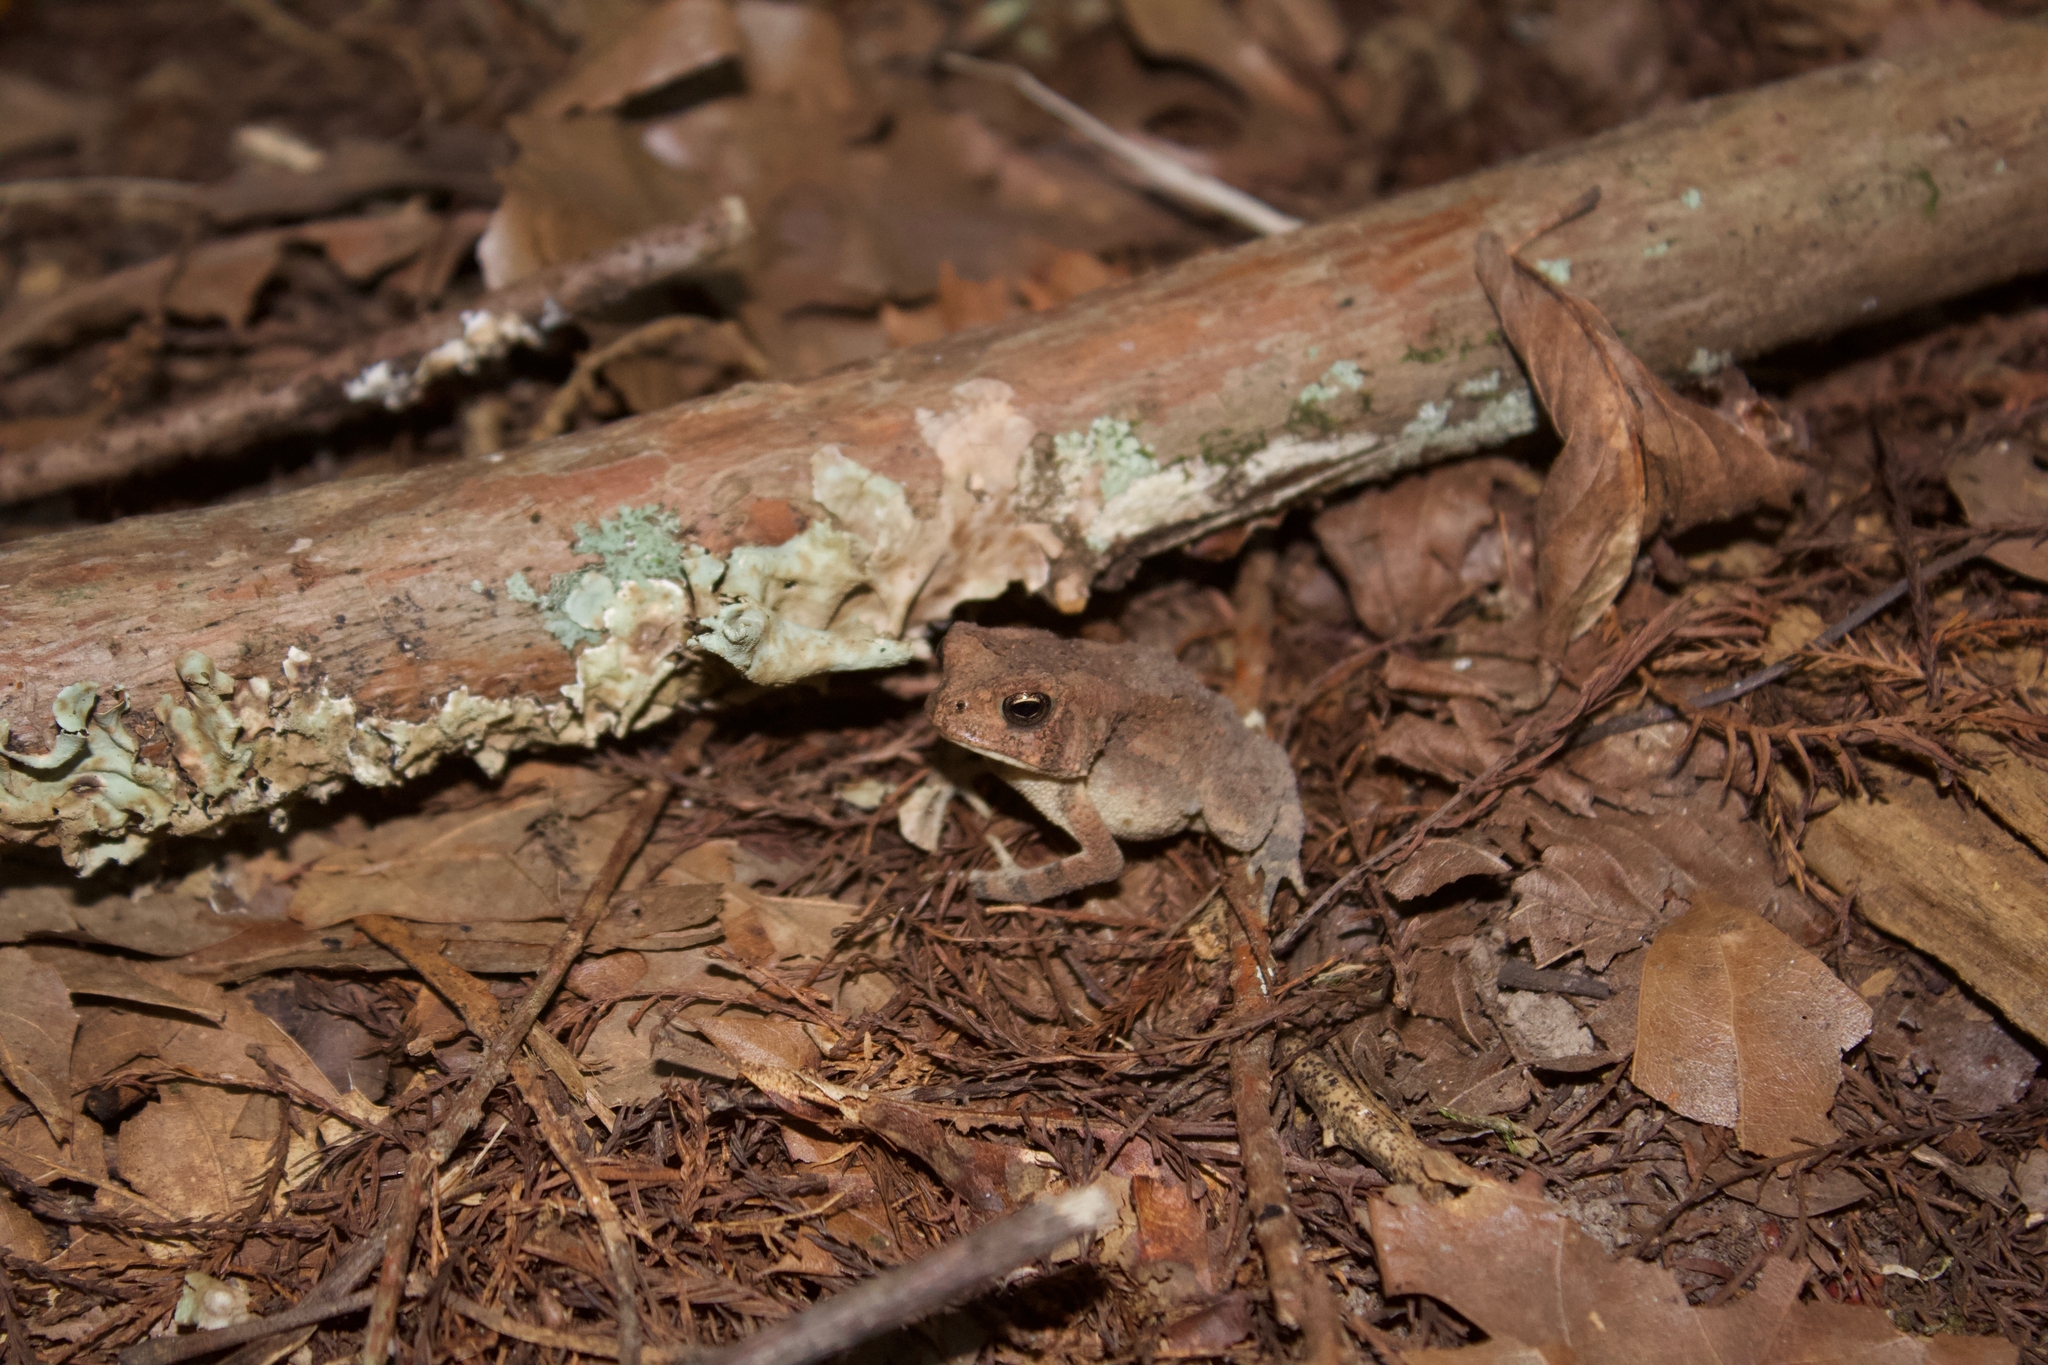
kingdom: Animalia
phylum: Chordata
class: Amphibia
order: Anura
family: Bufonidae
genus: Anaxyrus
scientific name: Anaxyrus fowleri
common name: Fowler's toad
